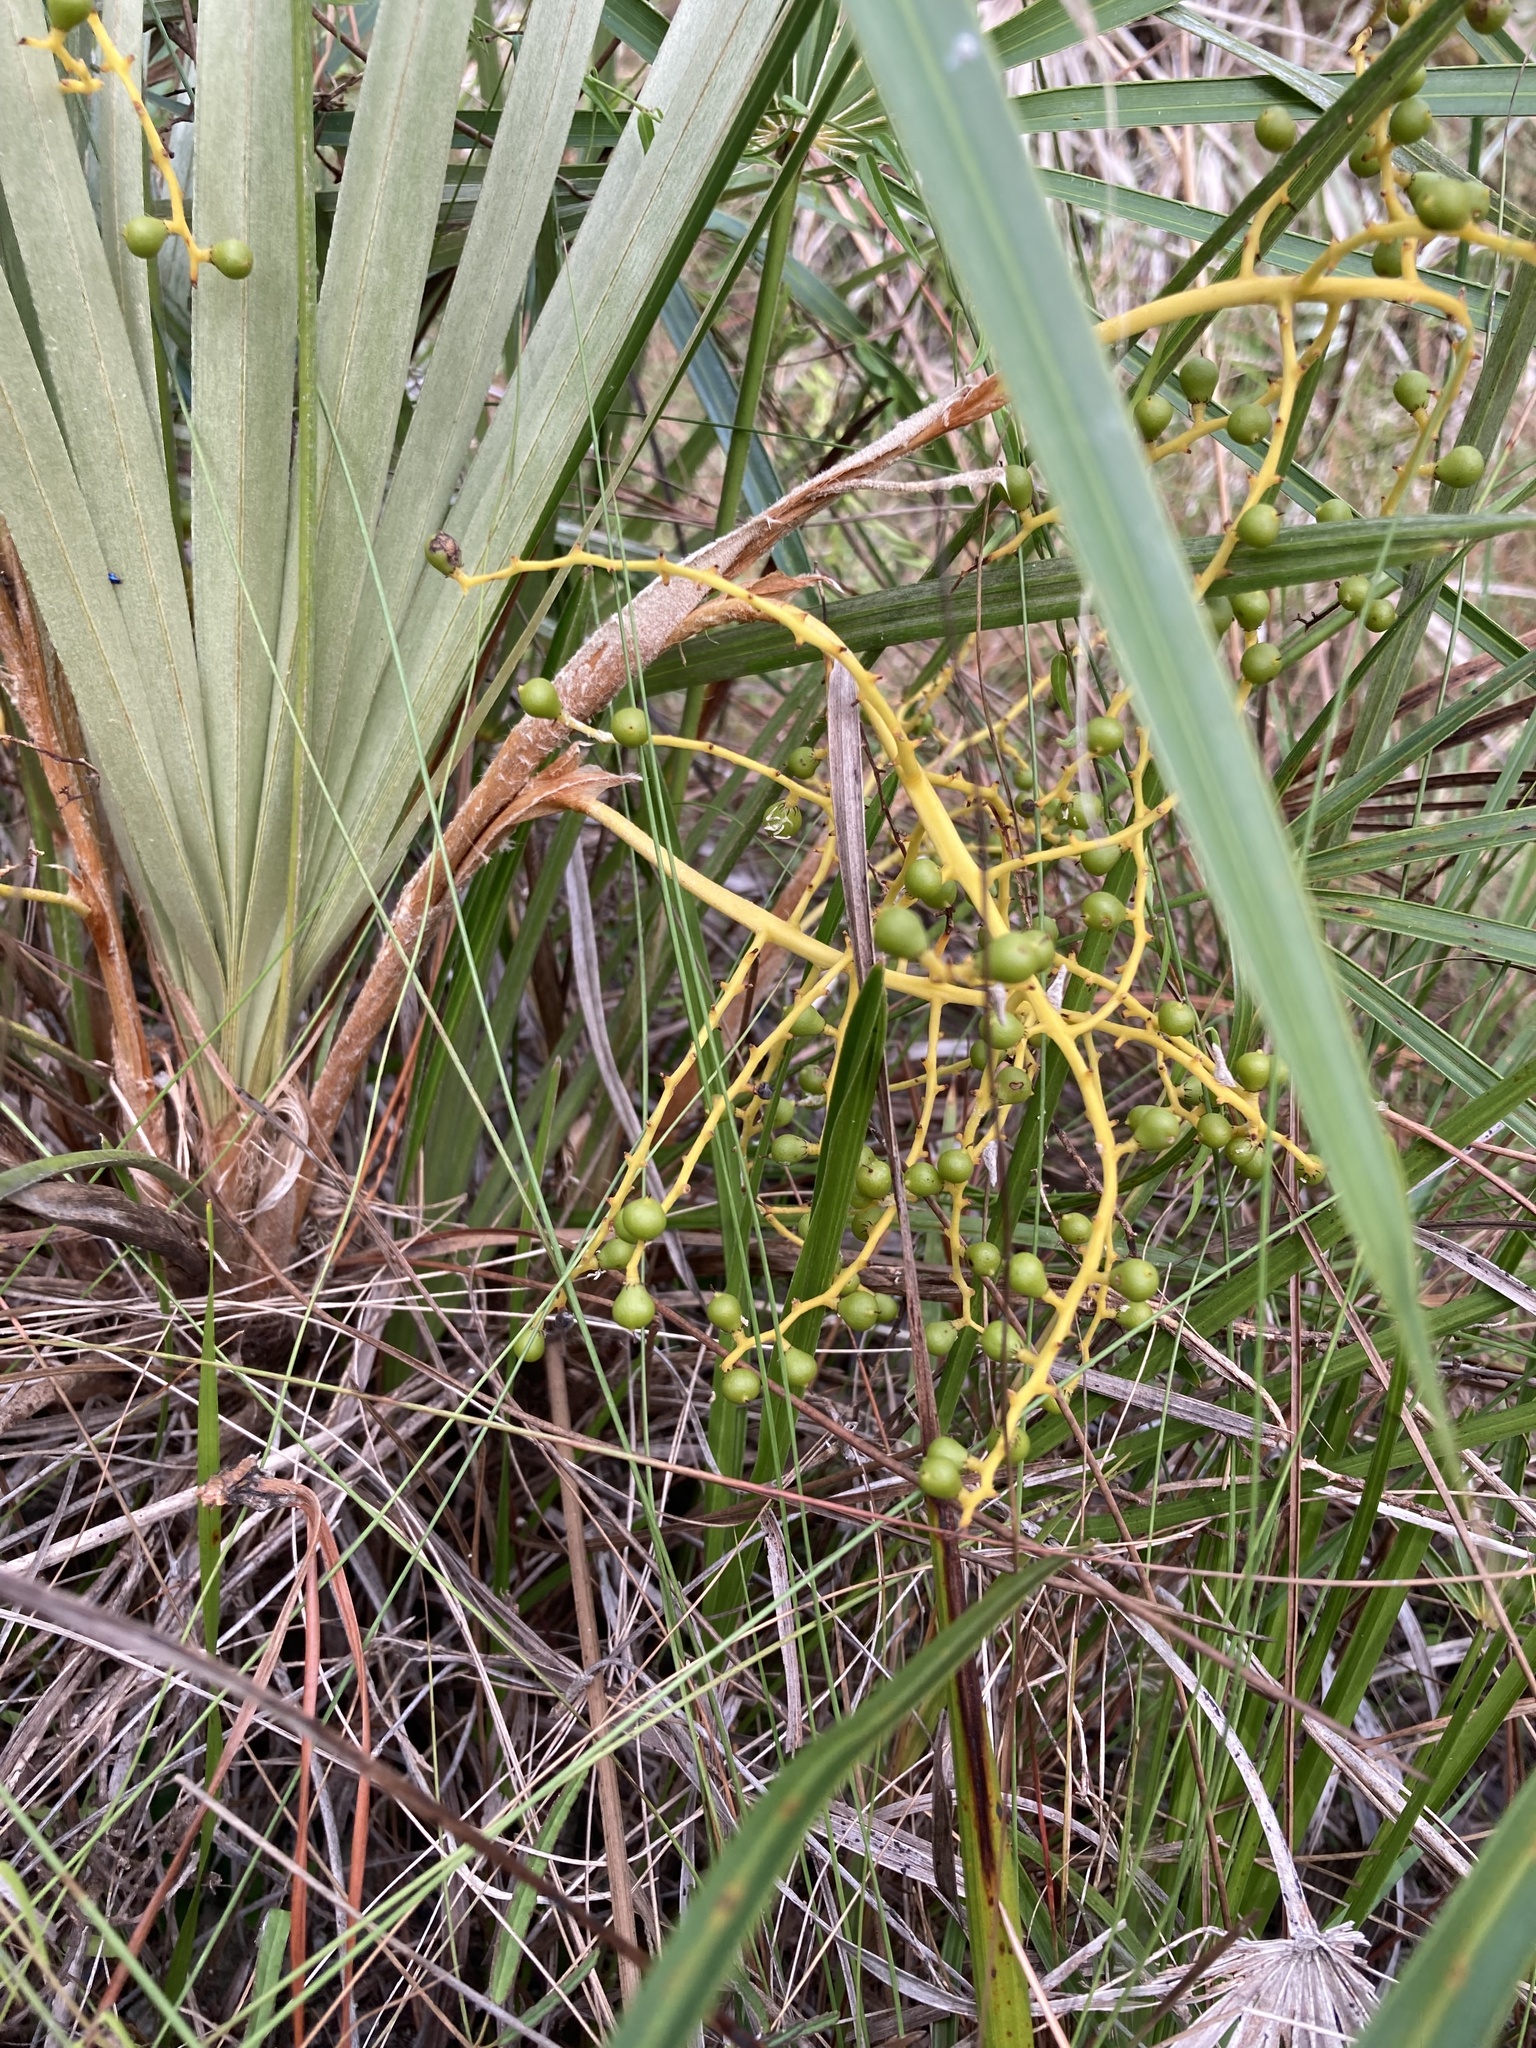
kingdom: Plantae
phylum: Tracheophyta
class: Liliopsida
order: Arecales
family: Arecaceae
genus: Coccothrinax
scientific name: Coccothrinax argentata
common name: Florida silver palm
